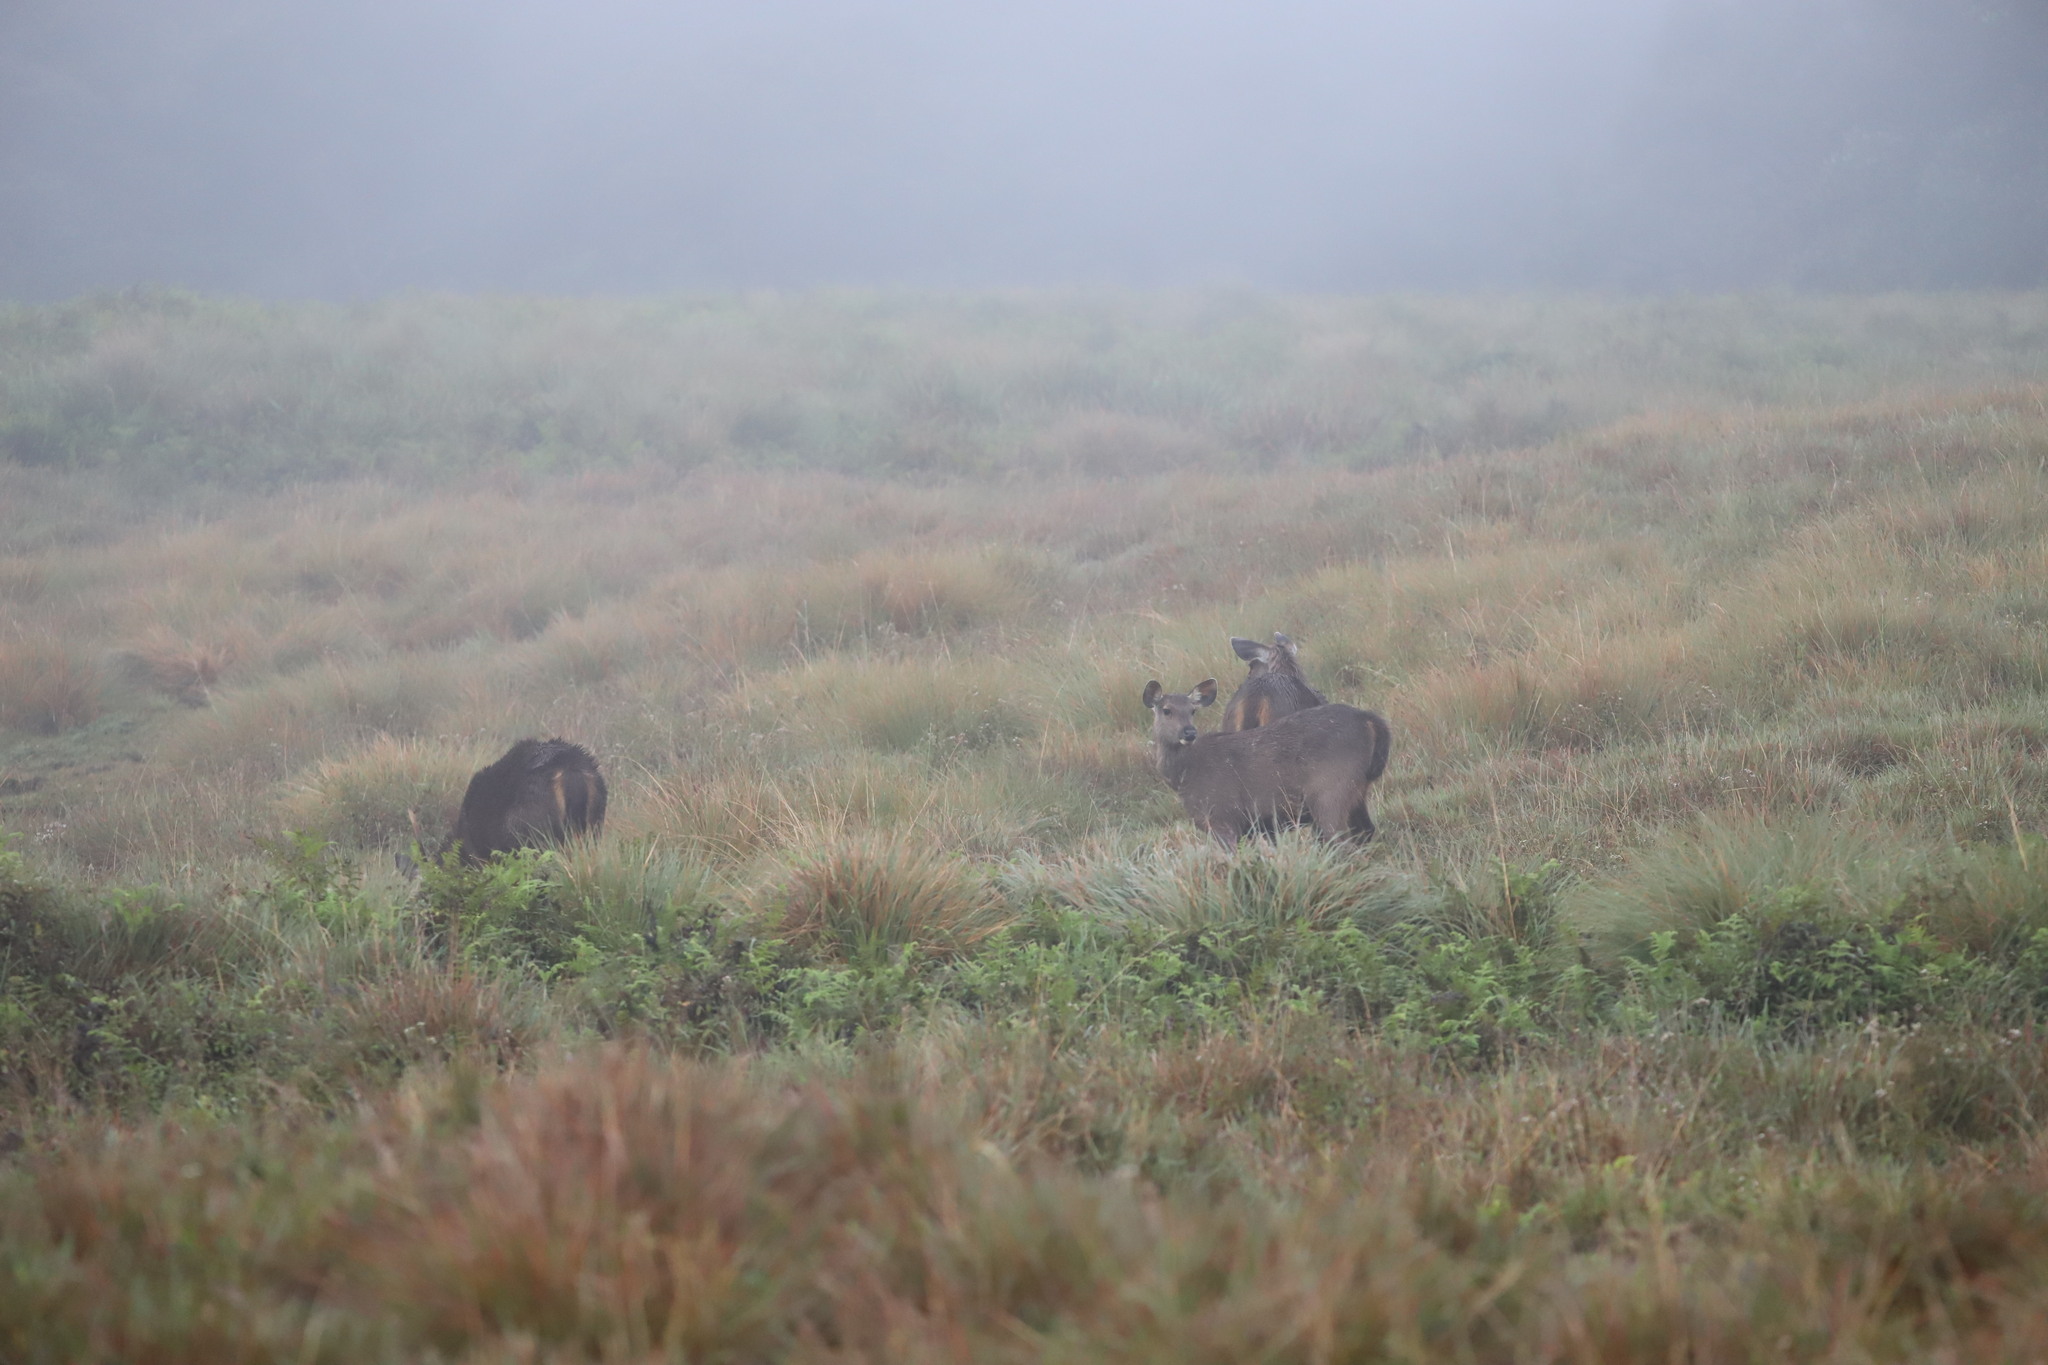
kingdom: Animalia
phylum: Chordata
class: Mammalia
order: Artiodactyla
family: Cervidae
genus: Rusa
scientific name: Rusa unicolor
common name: Sambar
